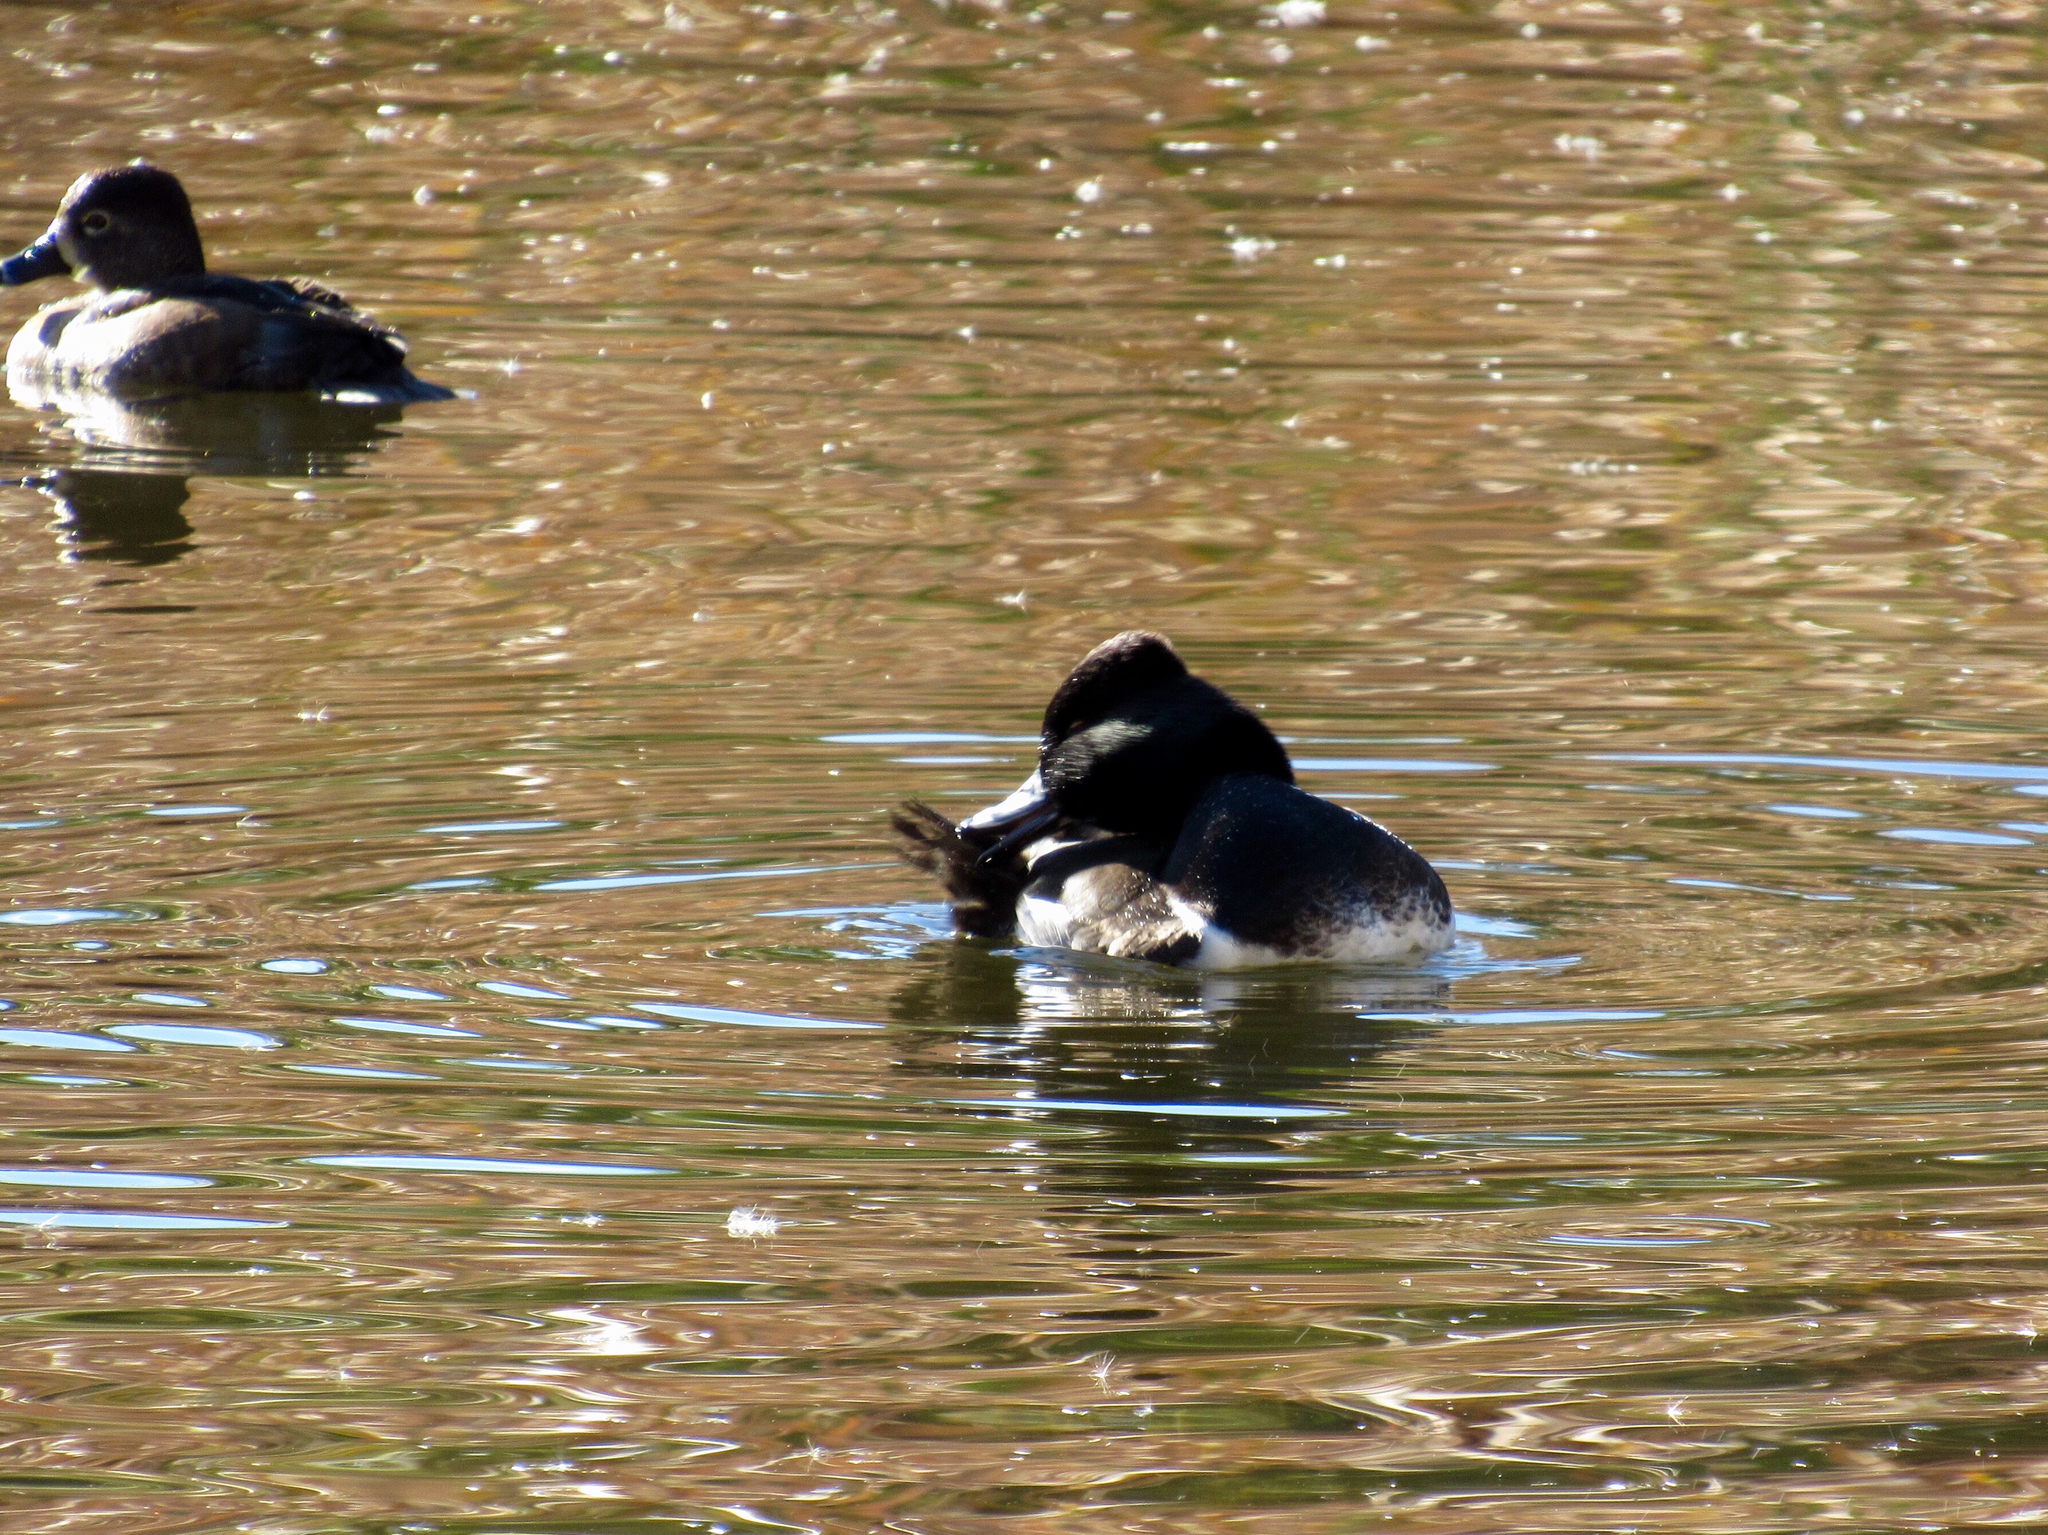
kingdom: Animalia
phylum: Chordata
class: Aves
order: Anseriformes
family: Anatidae
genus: Aythya
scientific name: Aythya collaris
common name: Ring-necked duck
